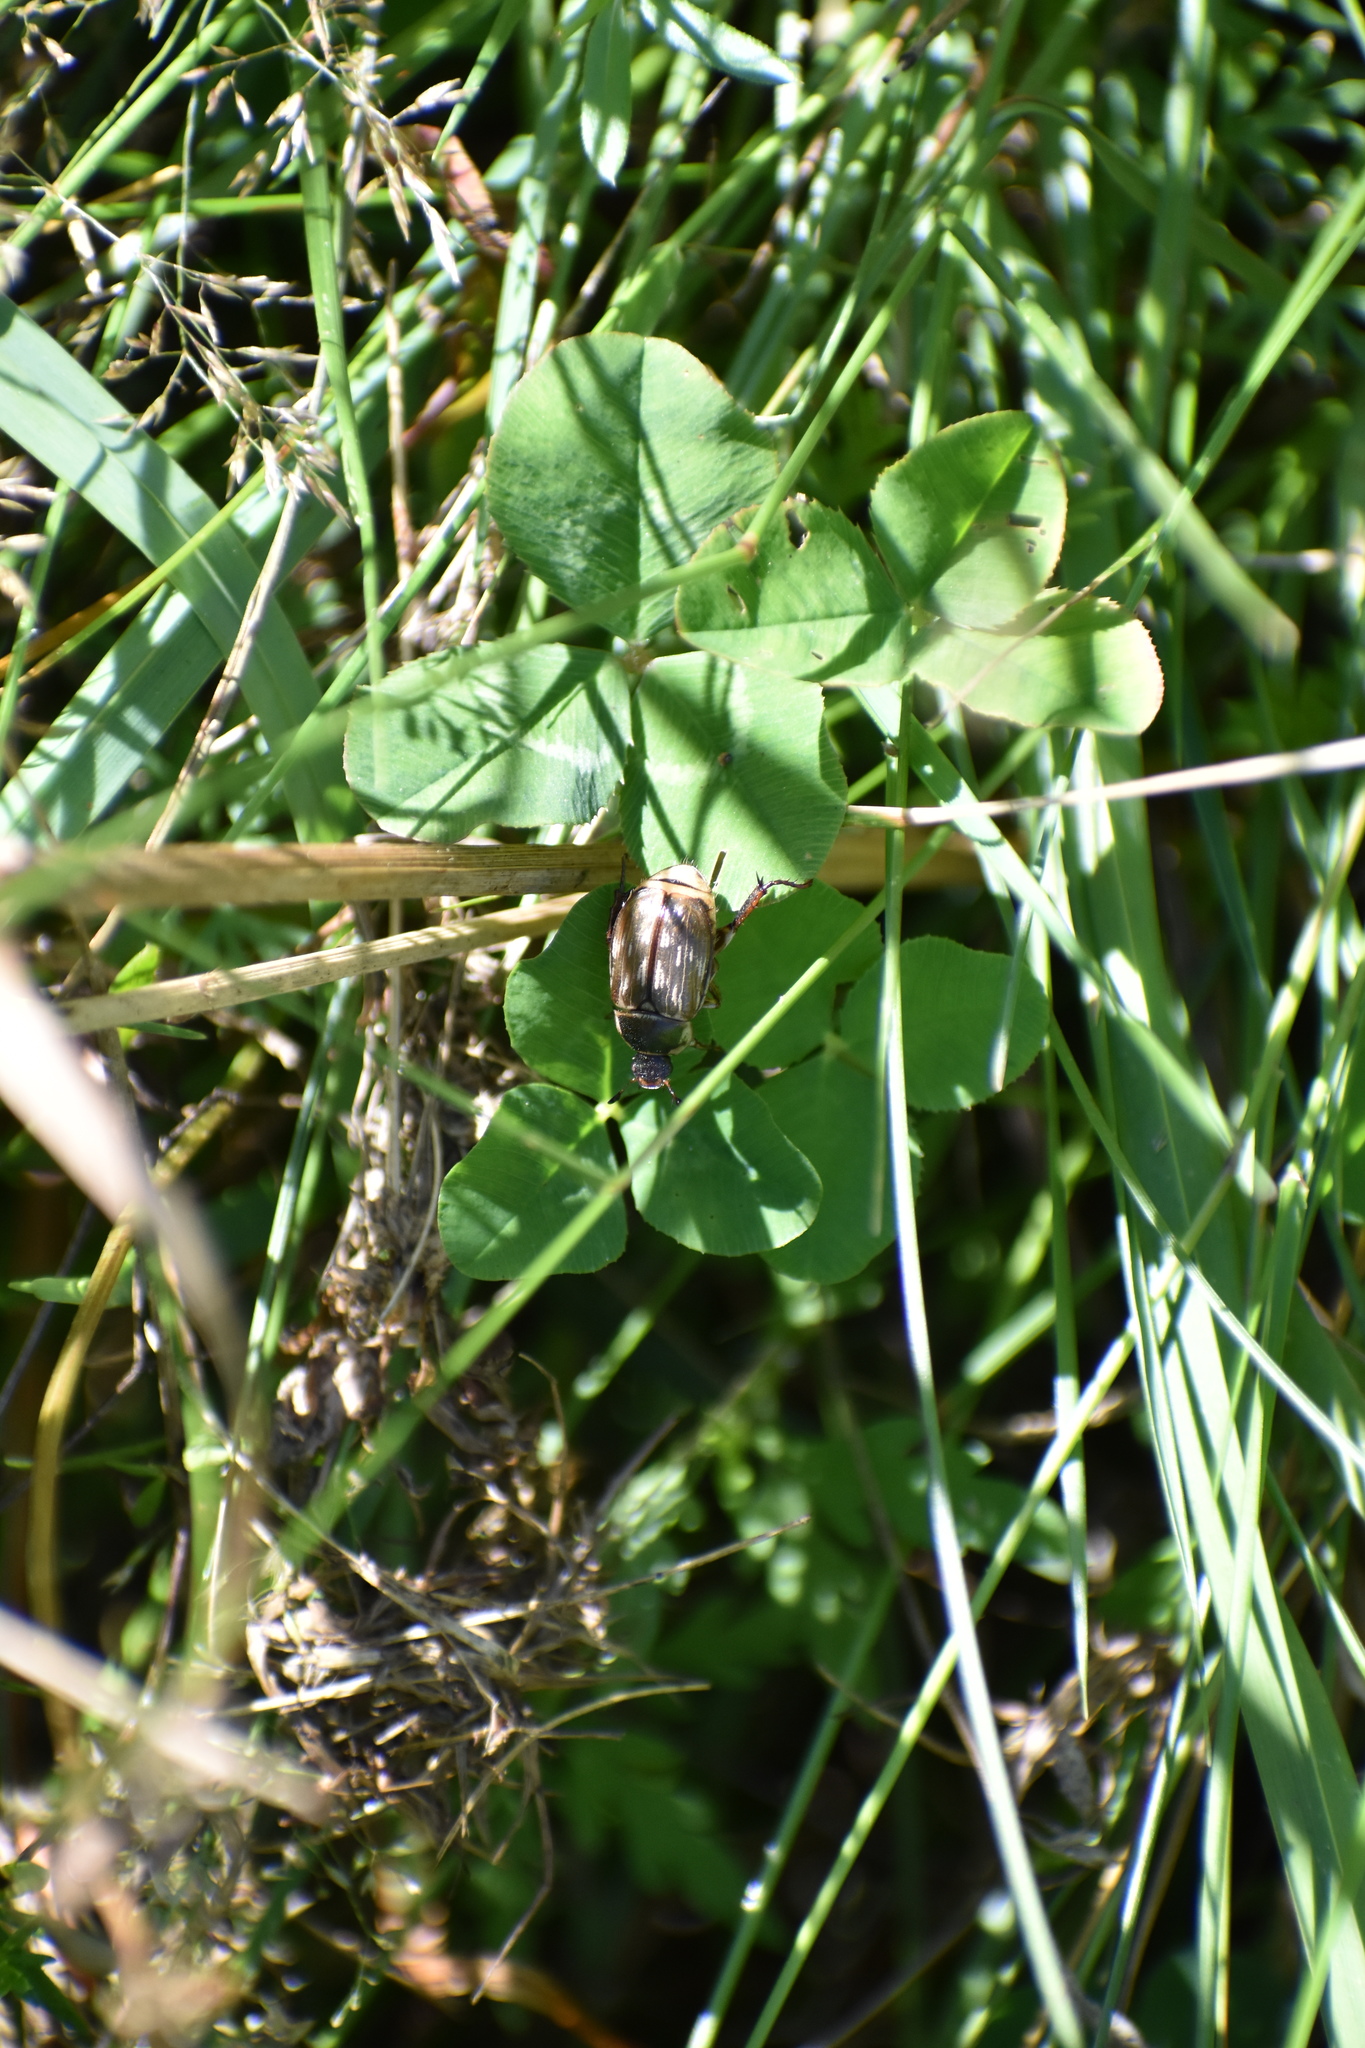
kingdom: Animalia
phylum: Arthropoda
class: Insecta
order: Coleoptera
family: Scarabaeidae
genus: Exomala
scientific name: Exomala orientalis
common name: Oriental beetle
